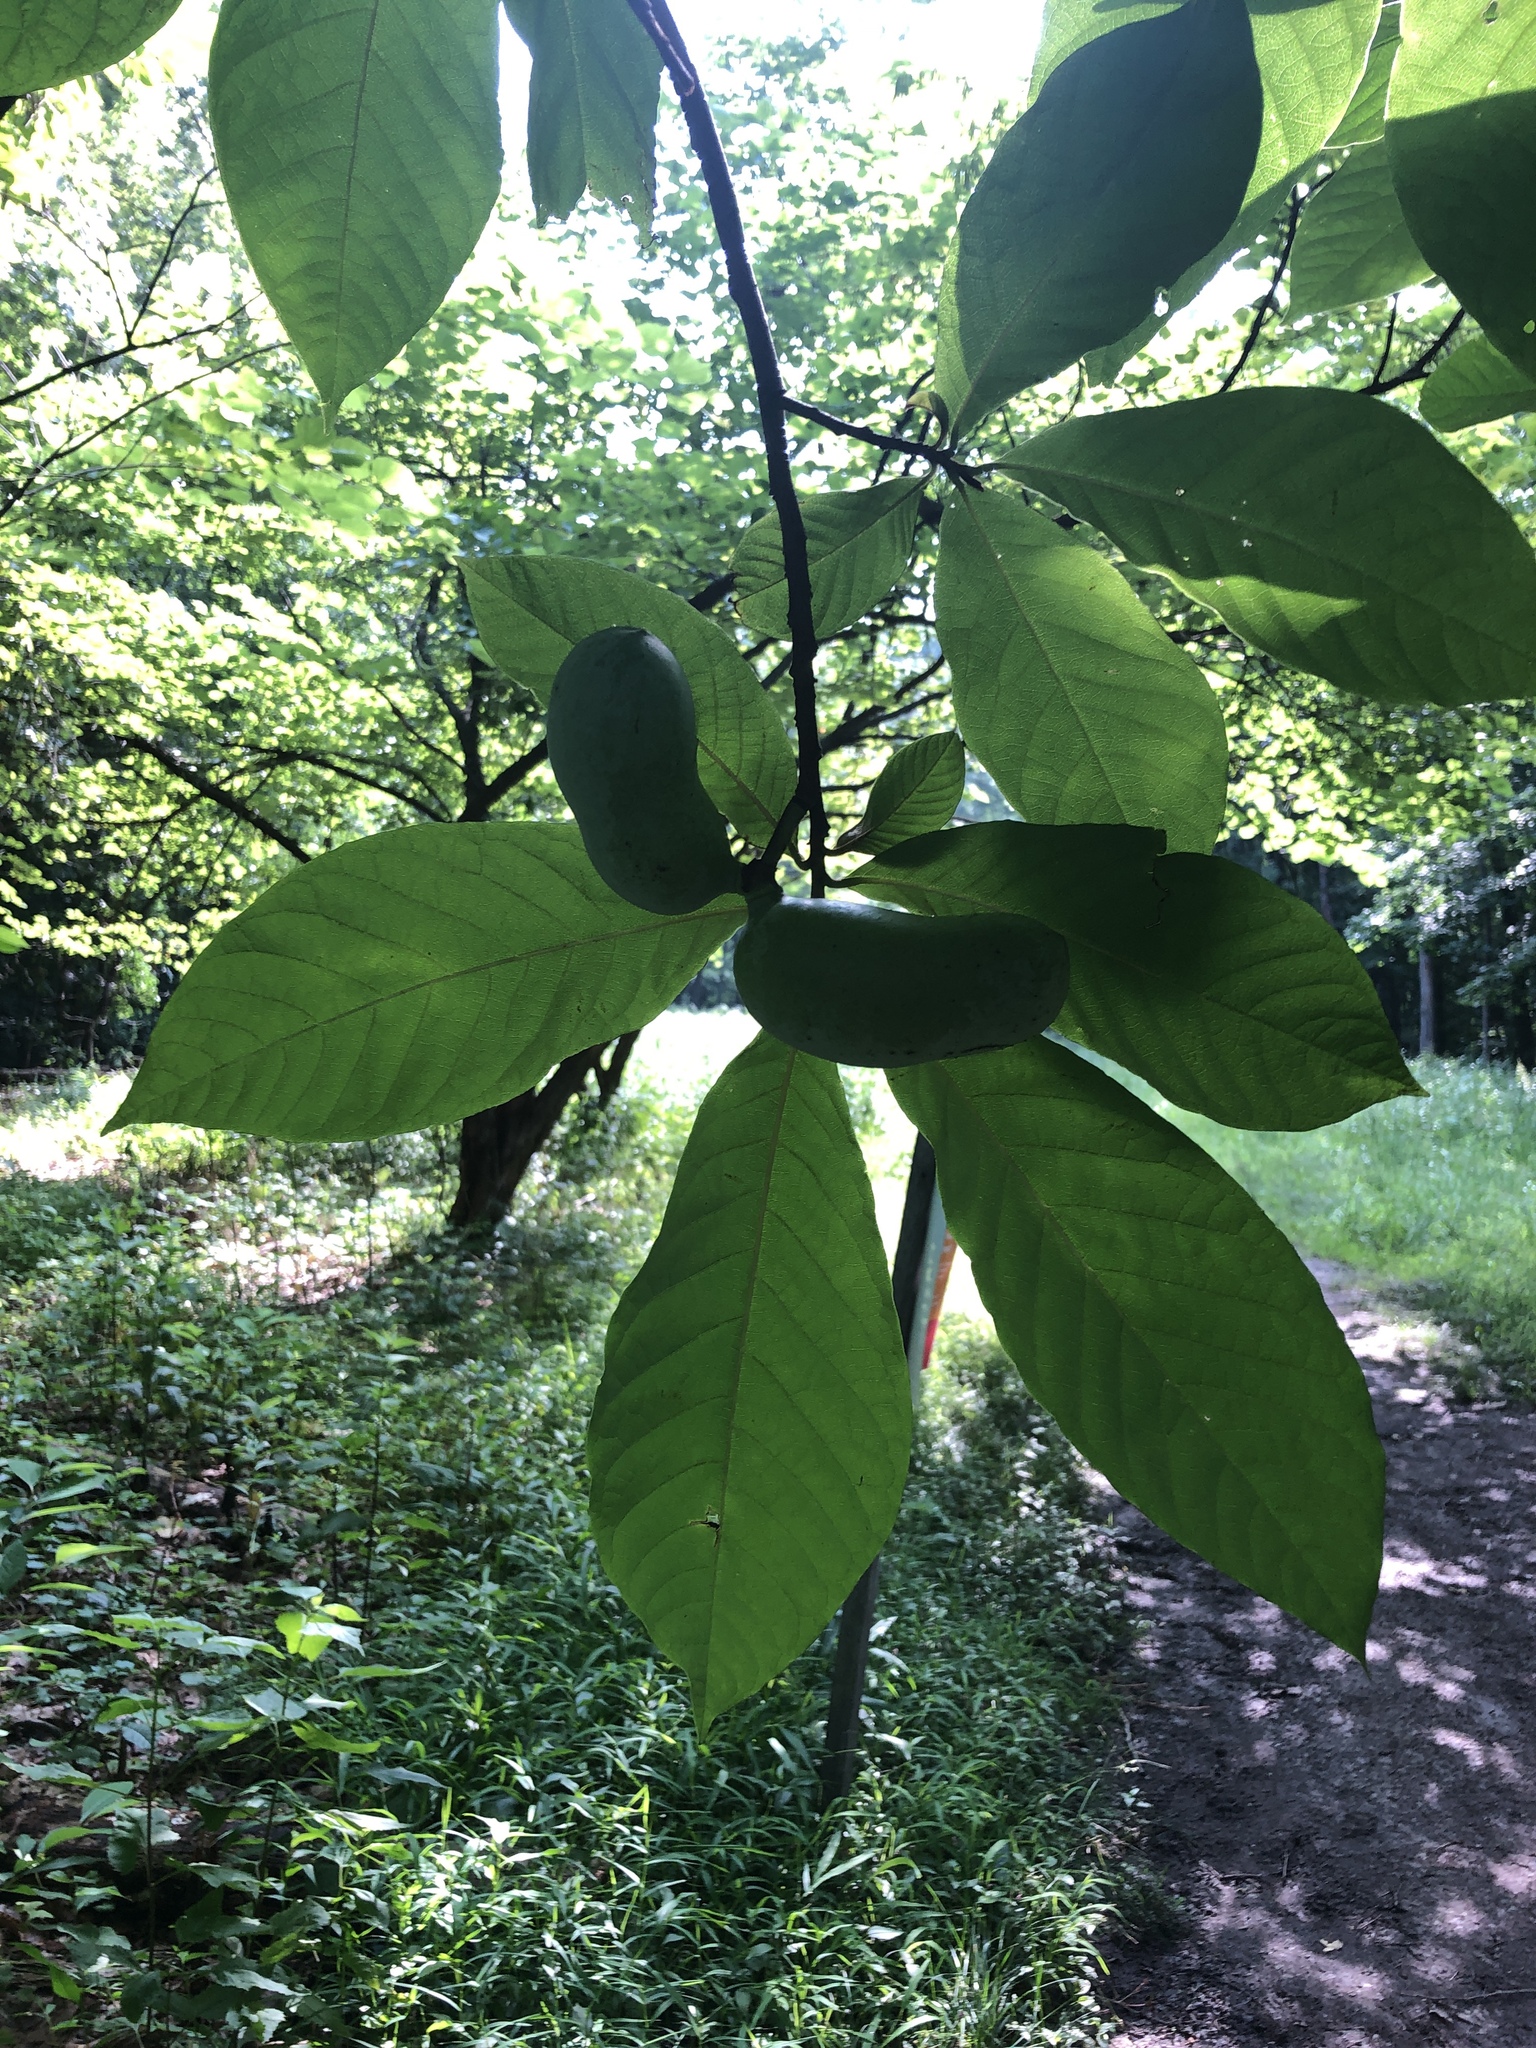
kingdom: Plantae
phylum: Tracheophyta
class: Magnoliopsida
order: Magnoliales
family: Annonaceae
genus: Asimina
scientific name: Asimina triloba
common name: Dog-banana
